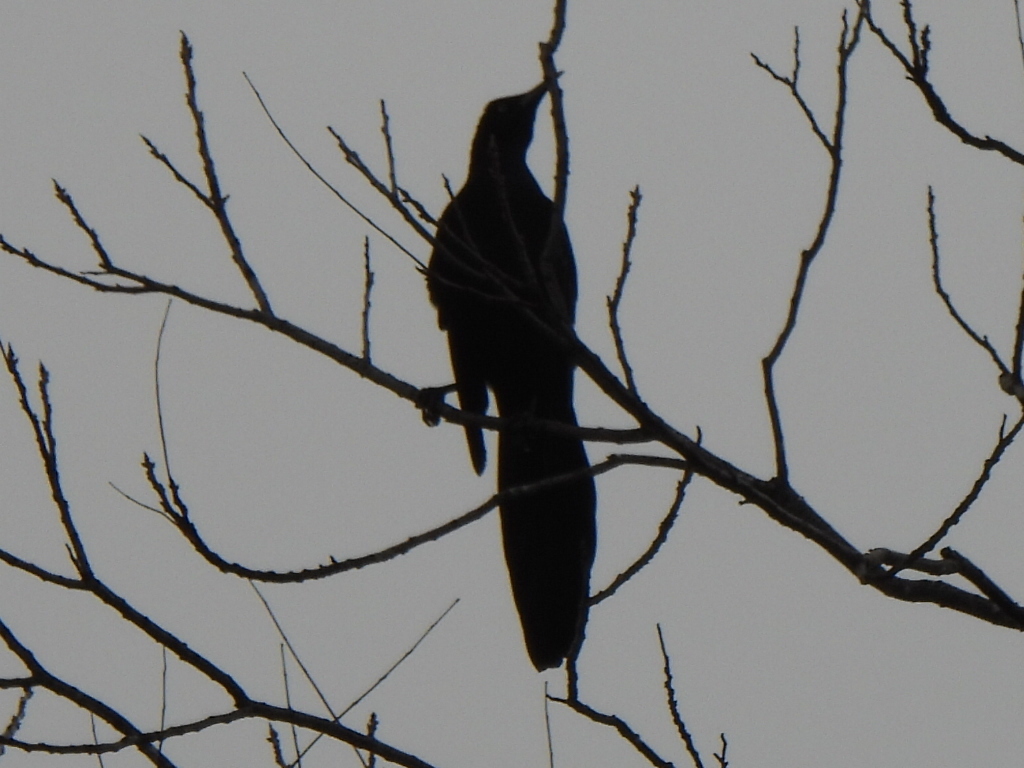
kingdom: Animalia
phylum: Chordata
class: Aves
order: Passeriformes
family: Icteridae
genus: Quiscalus
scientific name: Quiscalus mexicanus
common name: Great-tailed grackle
